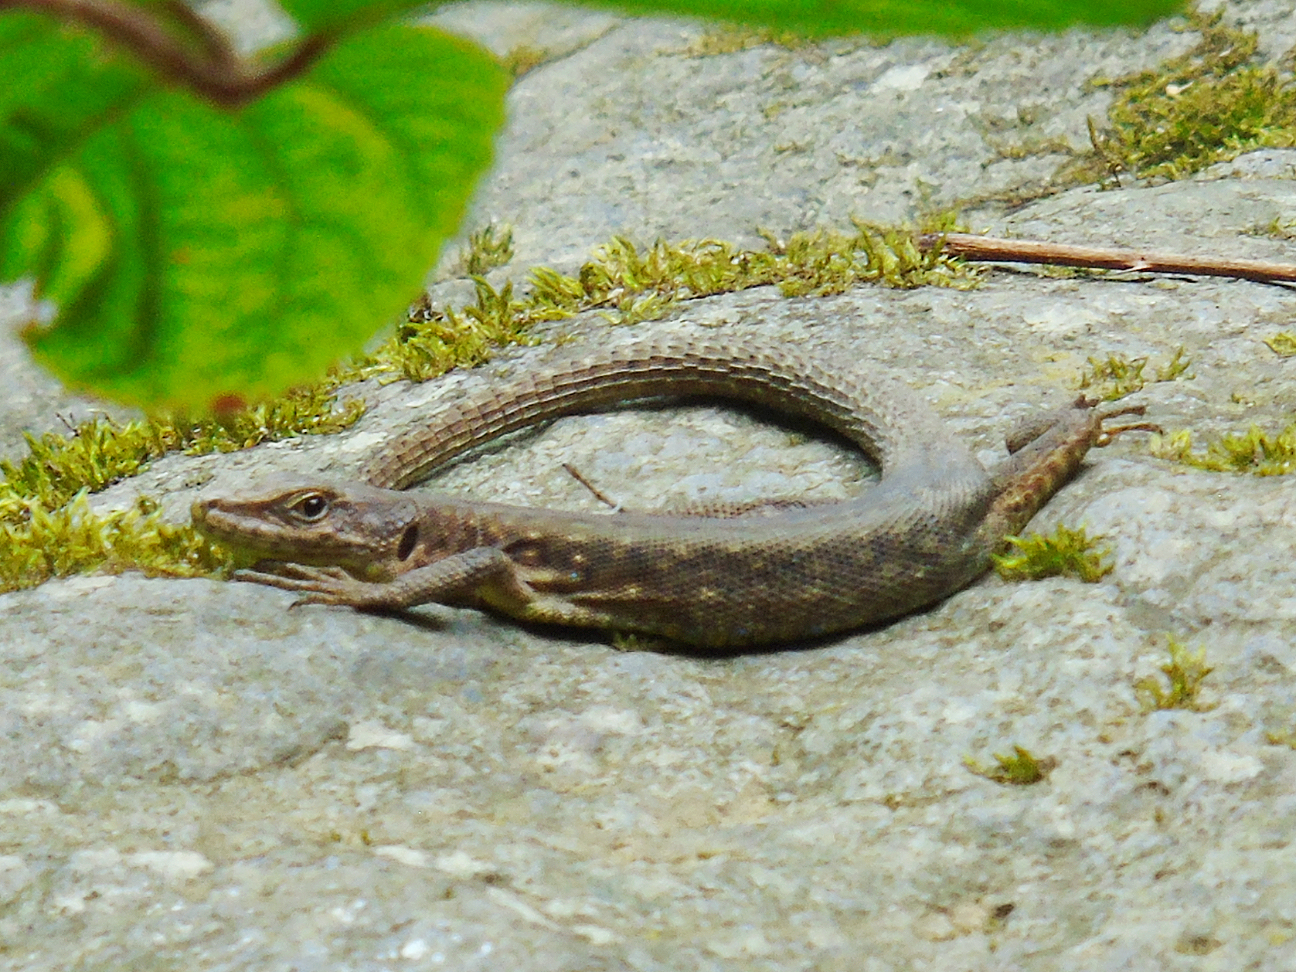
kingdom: Animalia
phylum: Chordata
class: Squamata
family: Lacertidae
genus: Darevskia
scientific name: Darevskia rudis
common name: Spiny-tailed lizard
